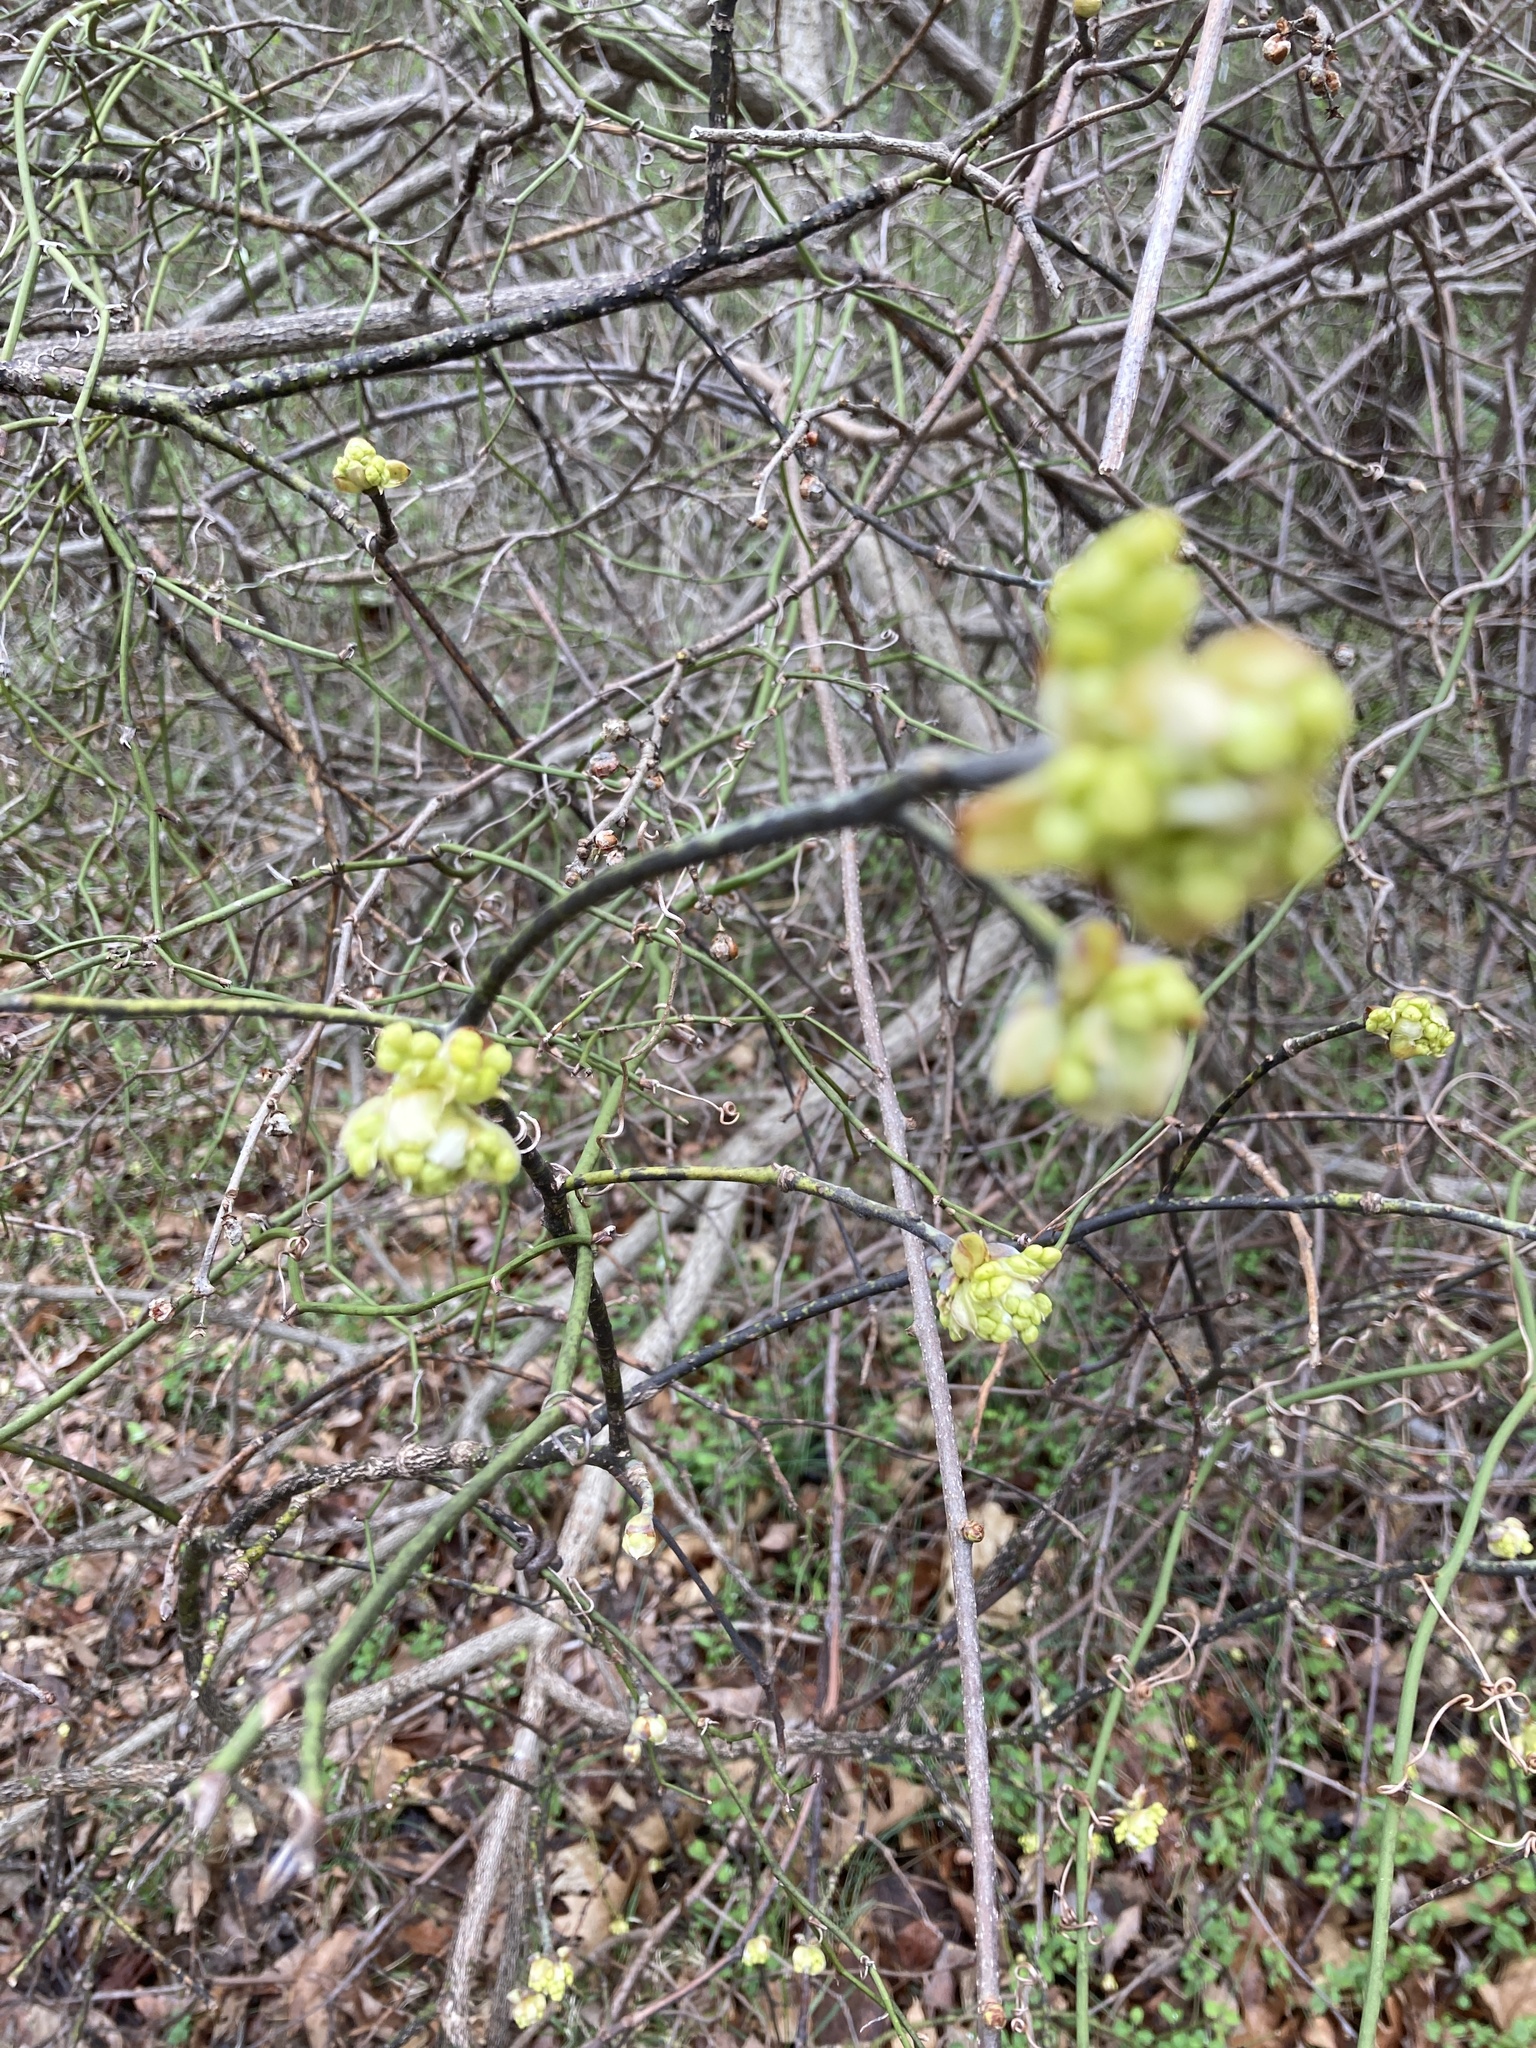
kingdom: Plantae
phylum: Tracheophyta
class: Magnoliopsida
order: Laurales
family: Lauraceae
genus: Sassafras
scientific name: Sassafras albidum
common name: Sassafras
